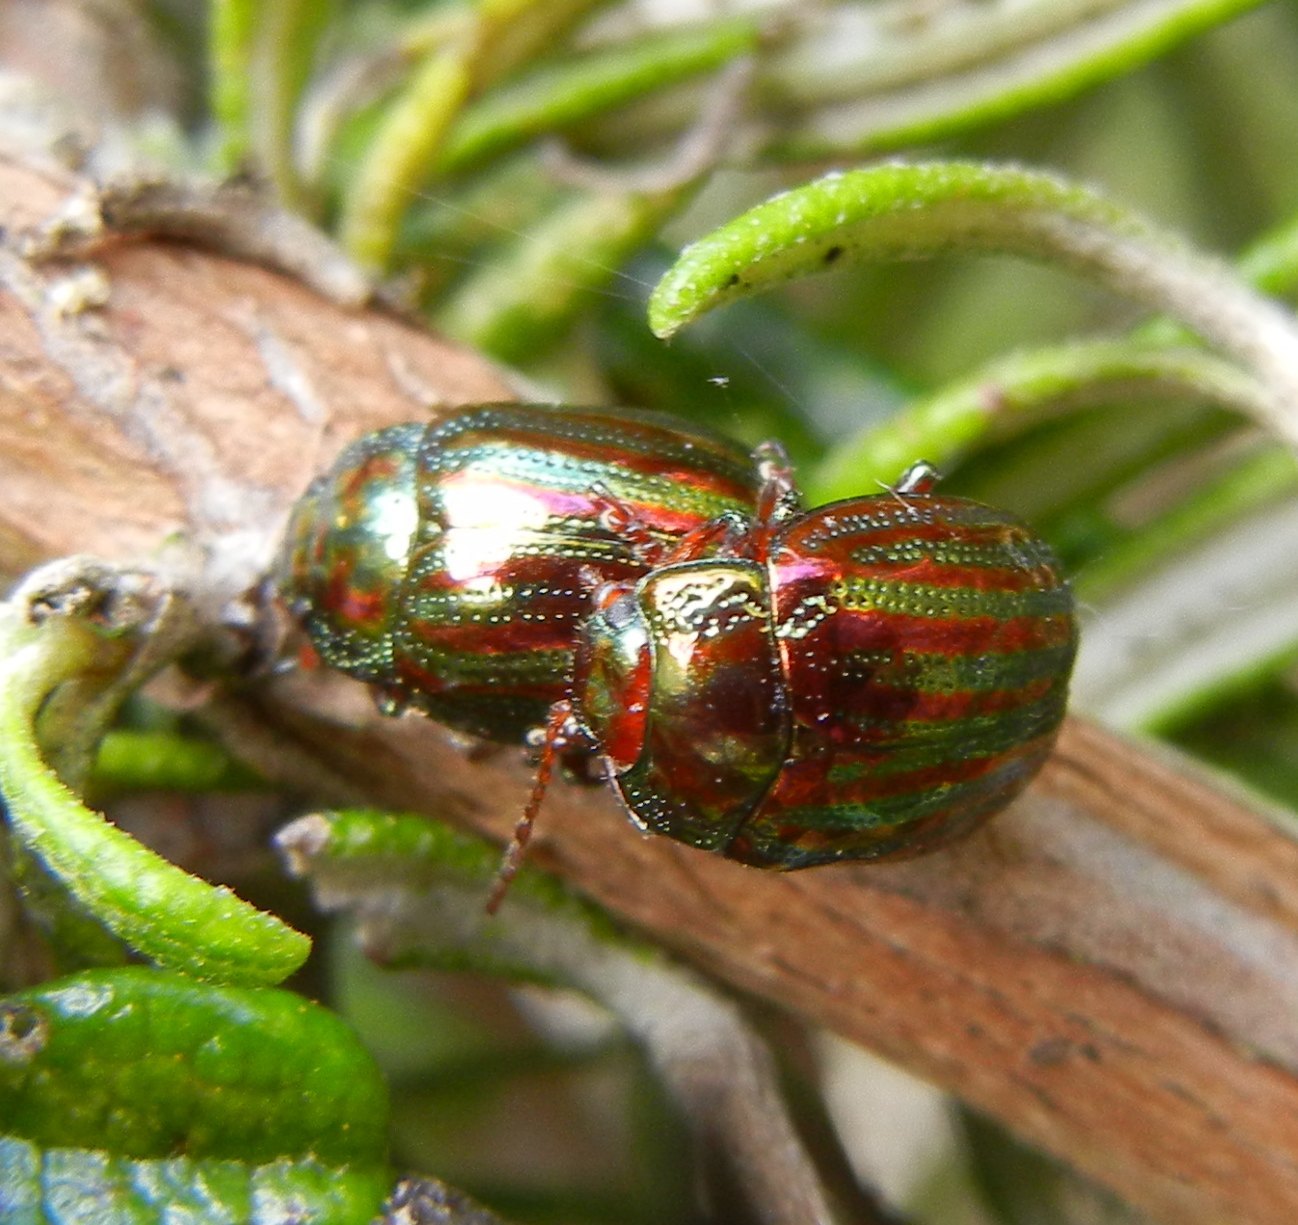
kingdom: Animalia
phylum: Arthropoda
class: Insecta
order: Coleoptera
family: Chrysomelidae
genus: Chrysolina
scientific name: Chrysolina americana
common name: Rosemary beetle
